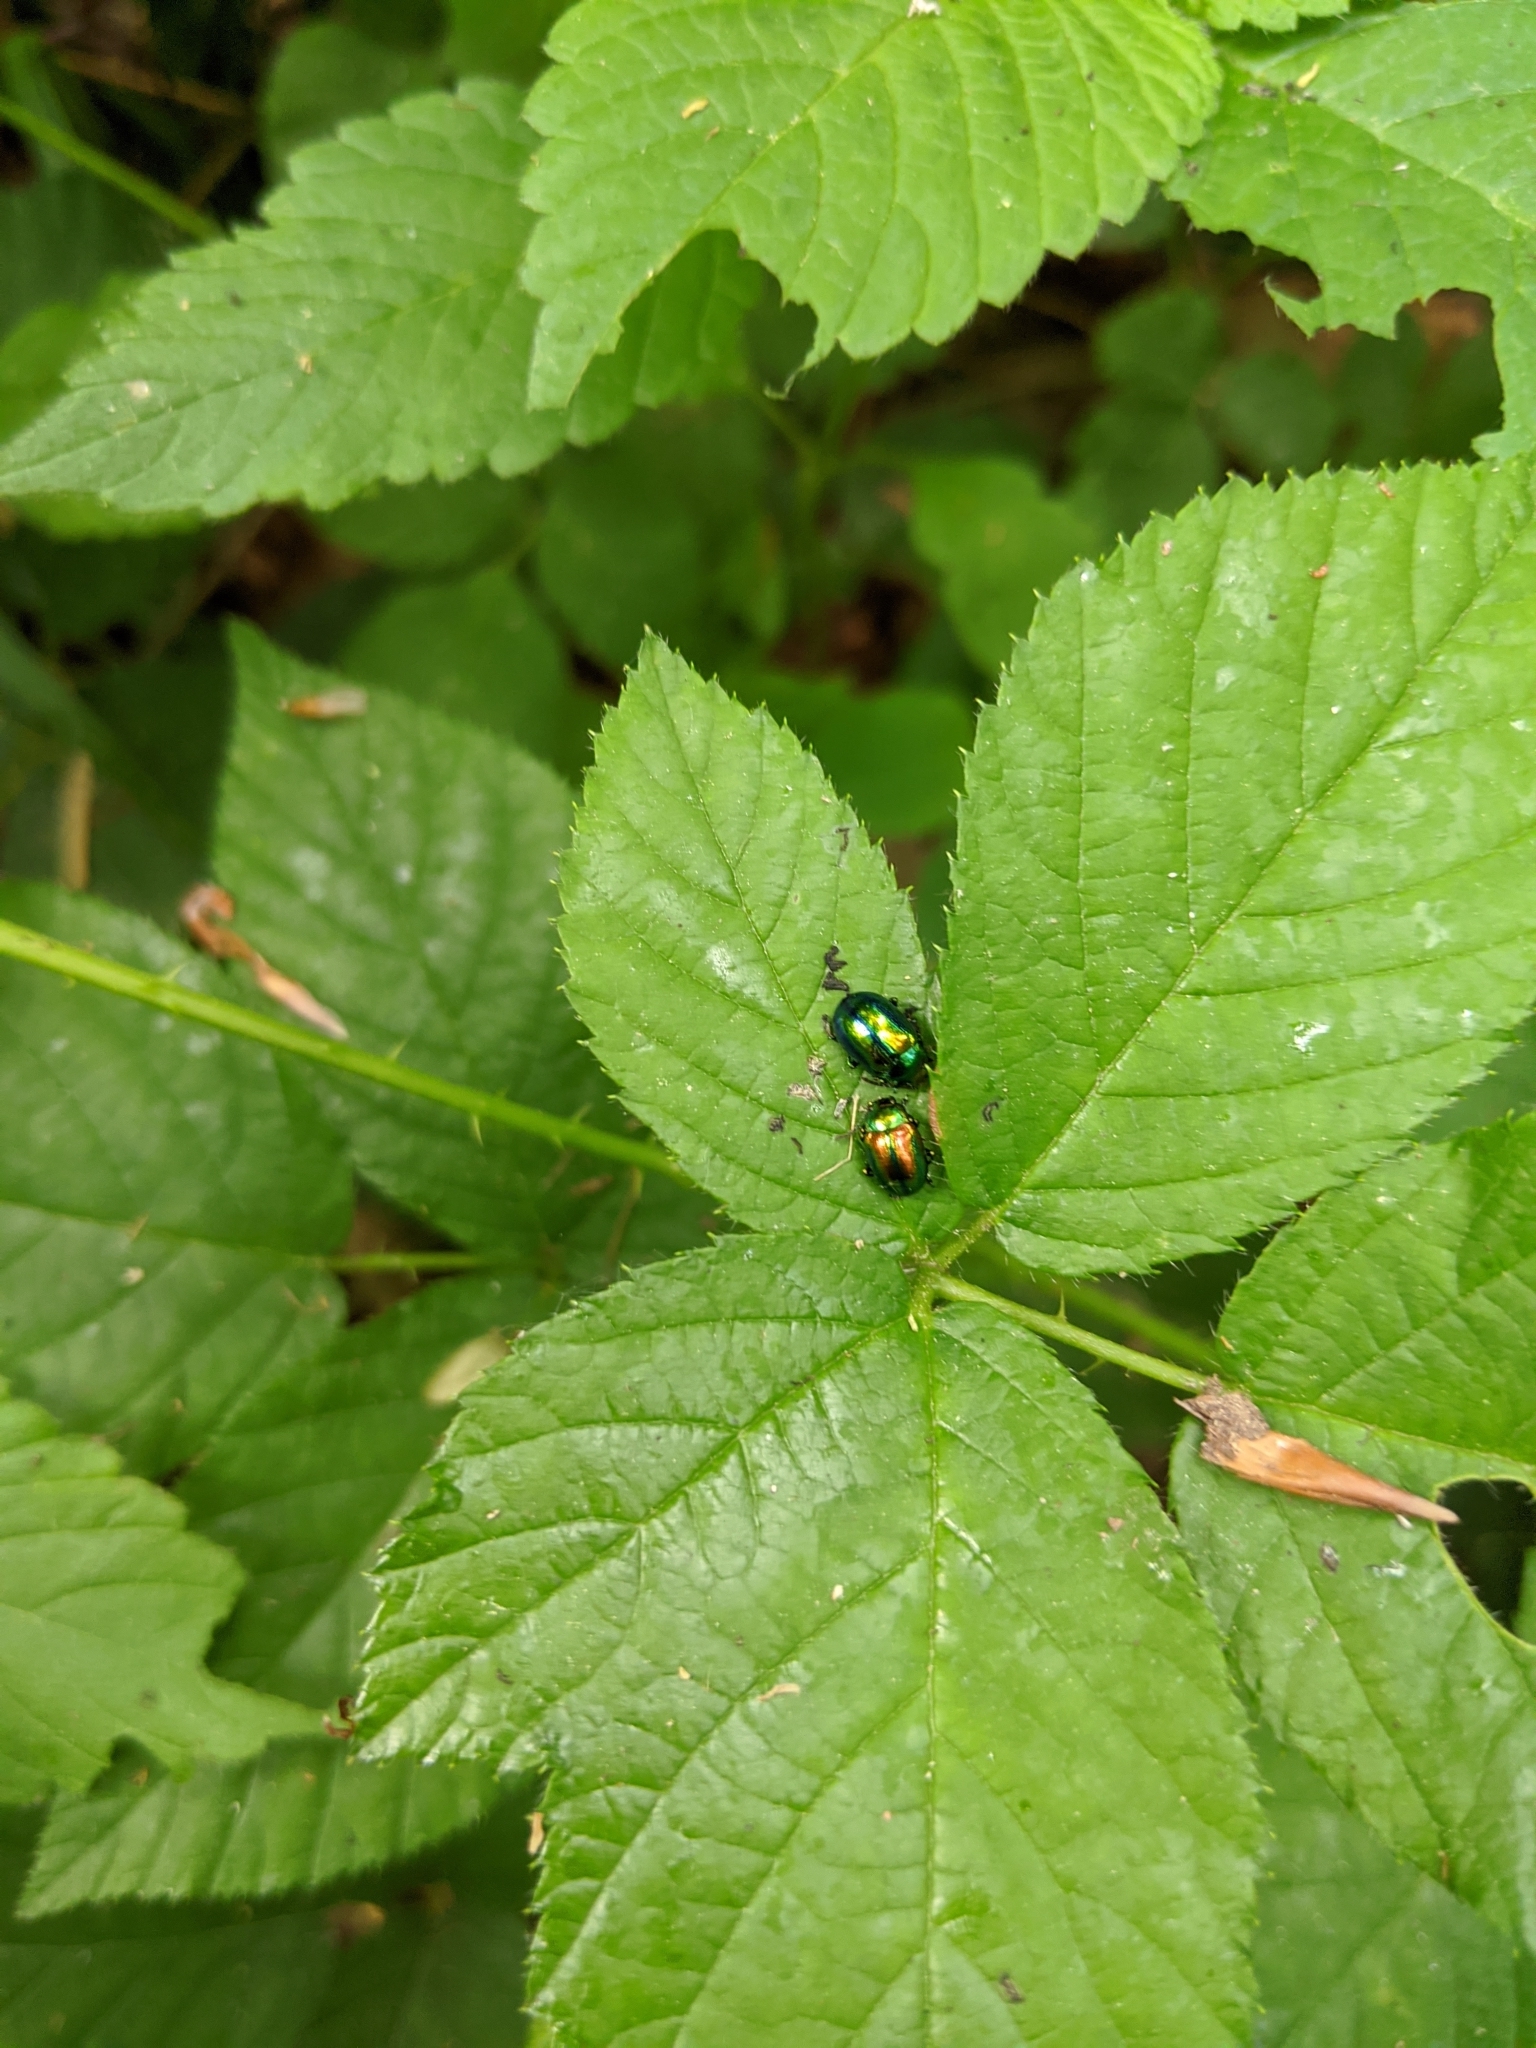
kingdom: Animalia
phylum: Arthropoda
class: Insecta
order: Coleoptera
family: Chrysomelidae
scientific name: Chrysomelidae
